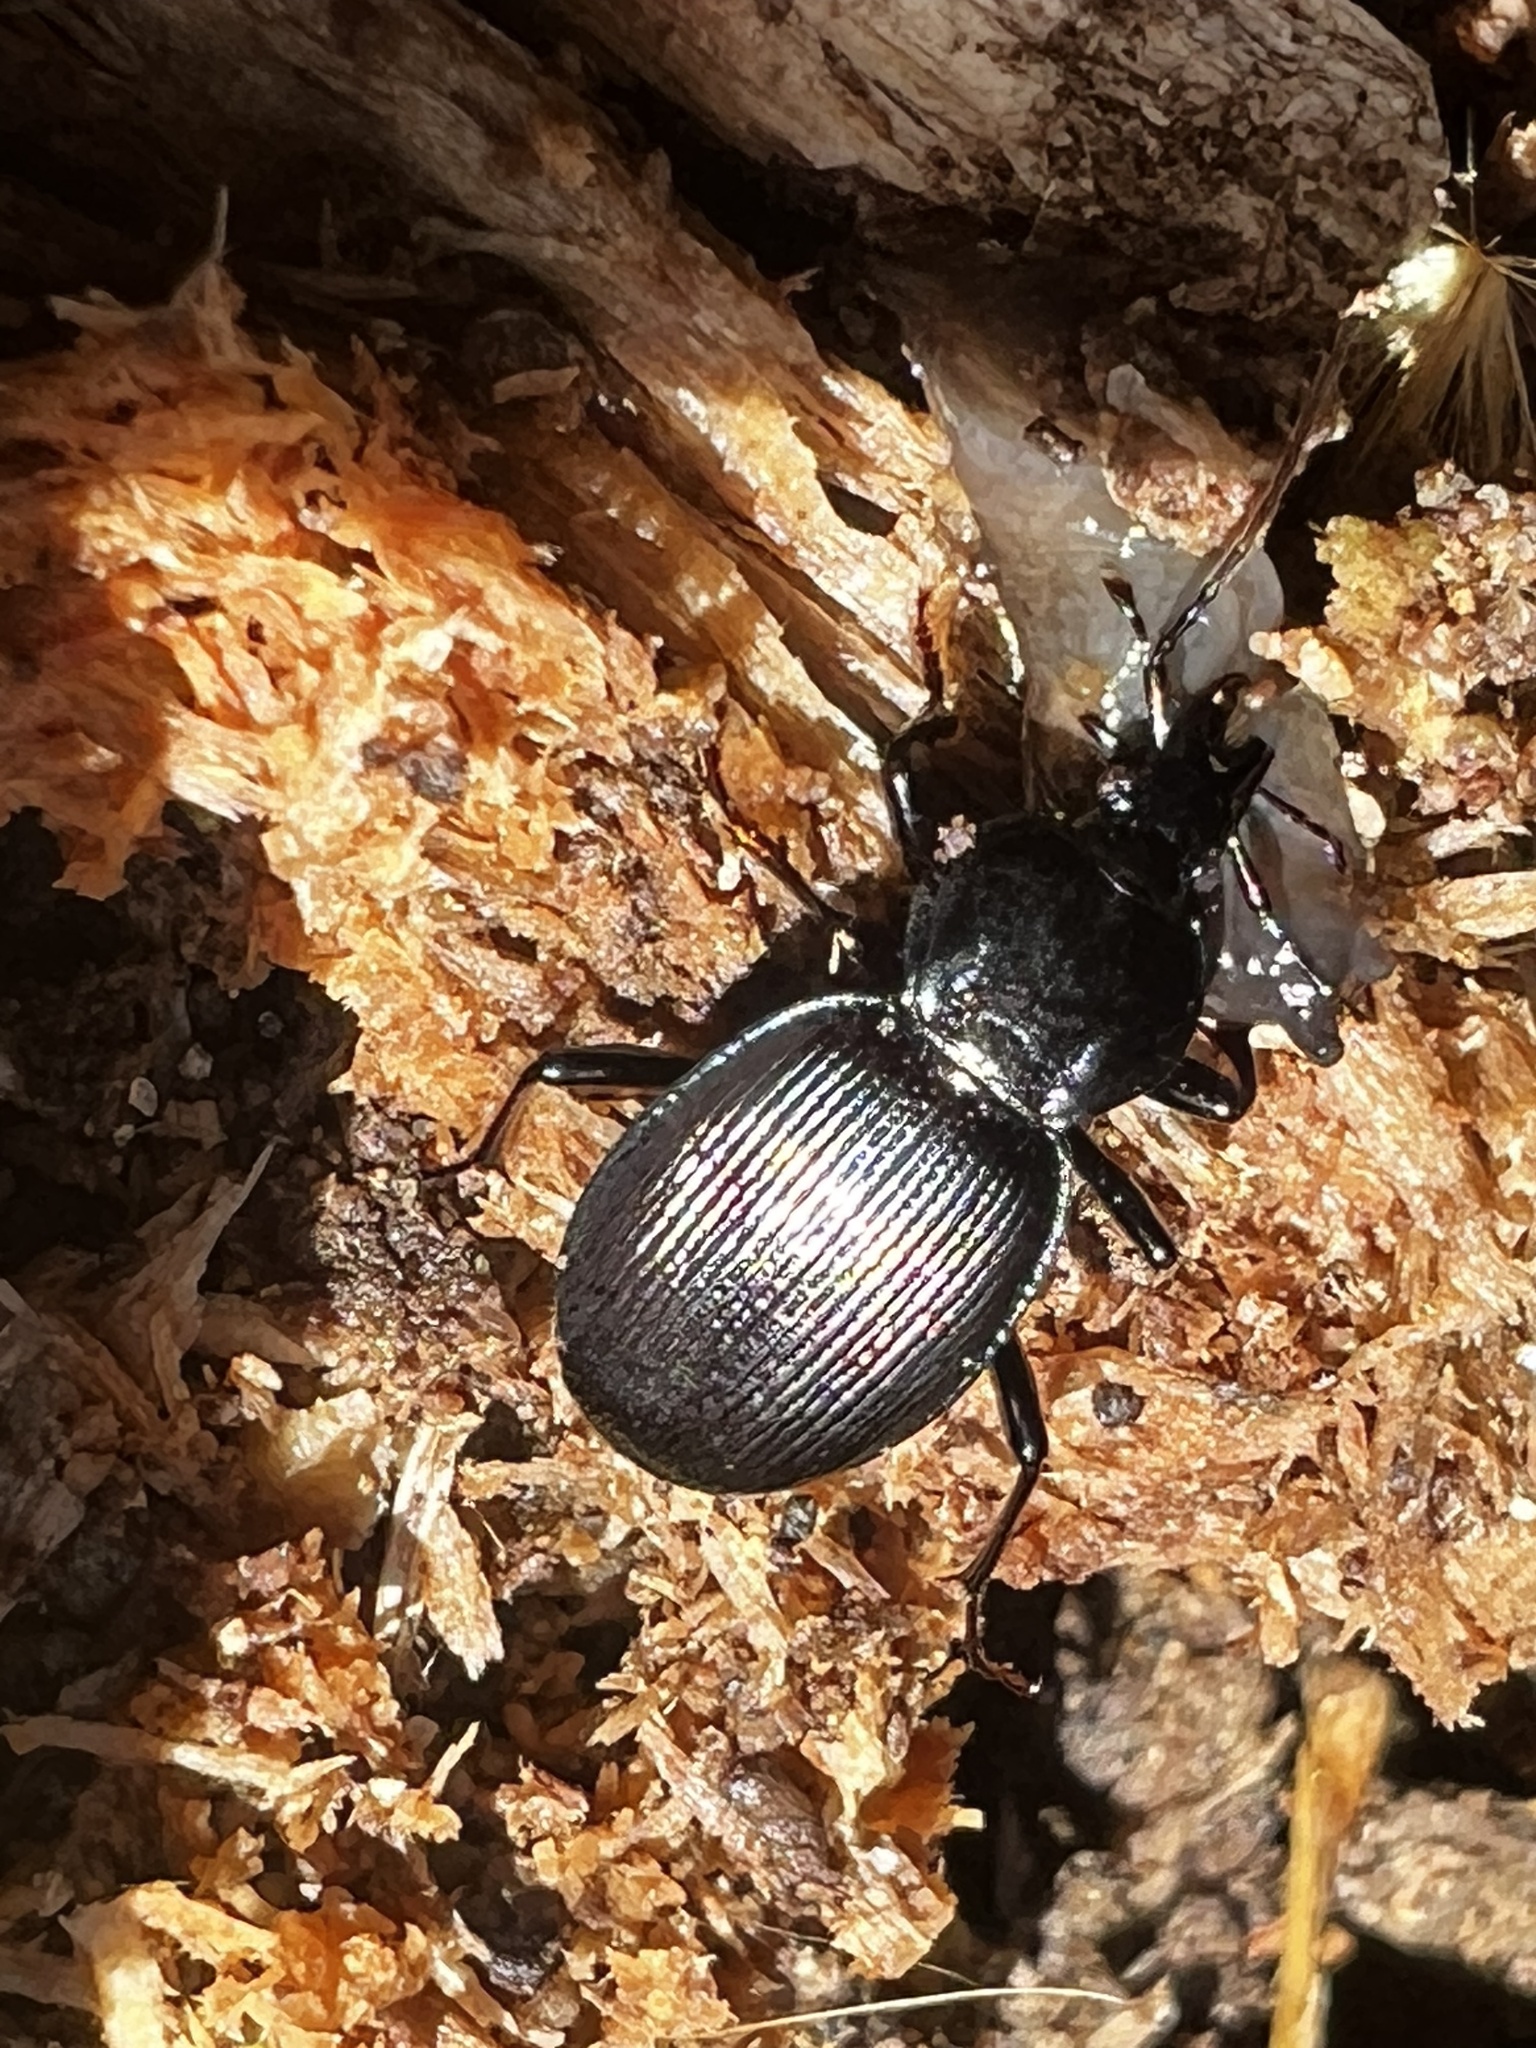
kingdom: Animalia
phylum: Arthropoda
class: Insecta
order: Coleoptera
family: Carabidae
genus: Sphaeroderus
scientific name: Sphaeroderus stenostomus
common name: Small snail-eating ground beetle
